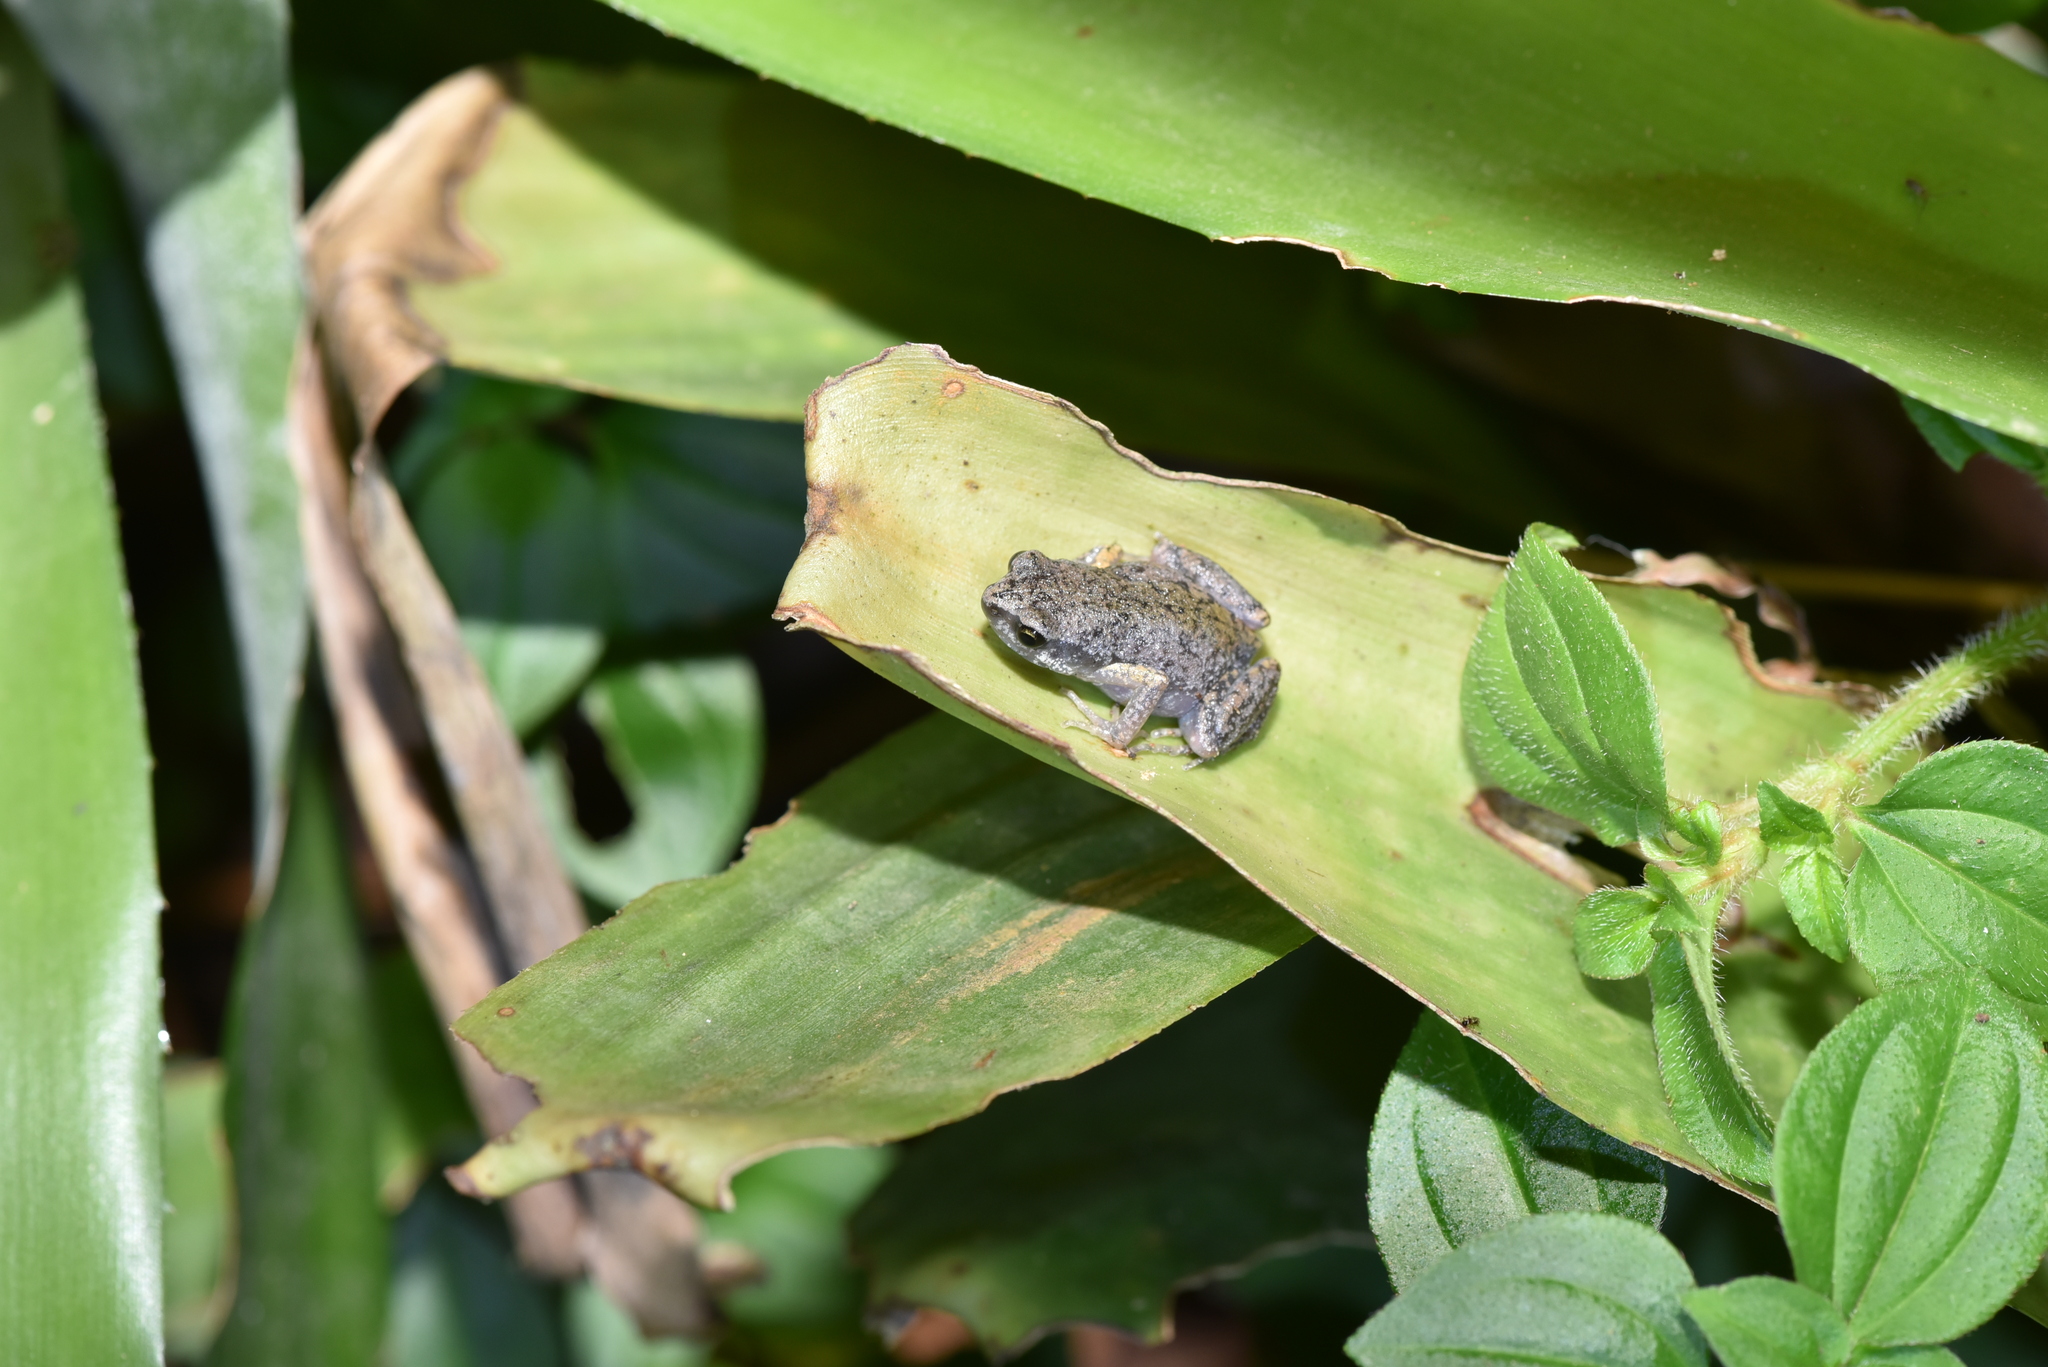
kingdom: Animalia
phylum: Chordata
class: Amphibia
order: Anura
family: Microhylidae
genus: Micryletta
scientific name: Micryletta steinegeri
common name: Stejneger's paddy frog
